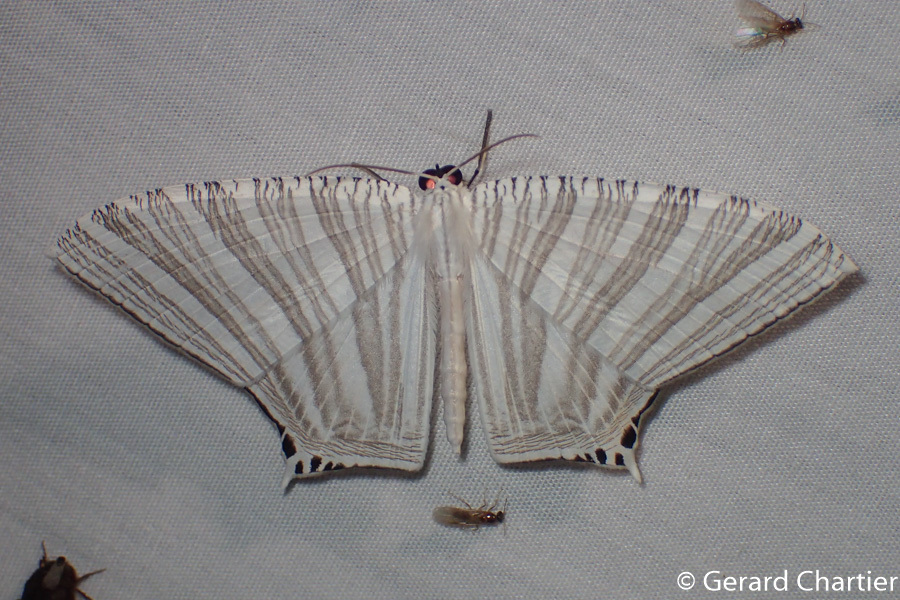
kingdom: Animalia
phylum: Arthropoda
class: Insecta
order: Lepidoptera
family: Uraniidae
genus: Strophidia
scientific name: Strophidia caudata
